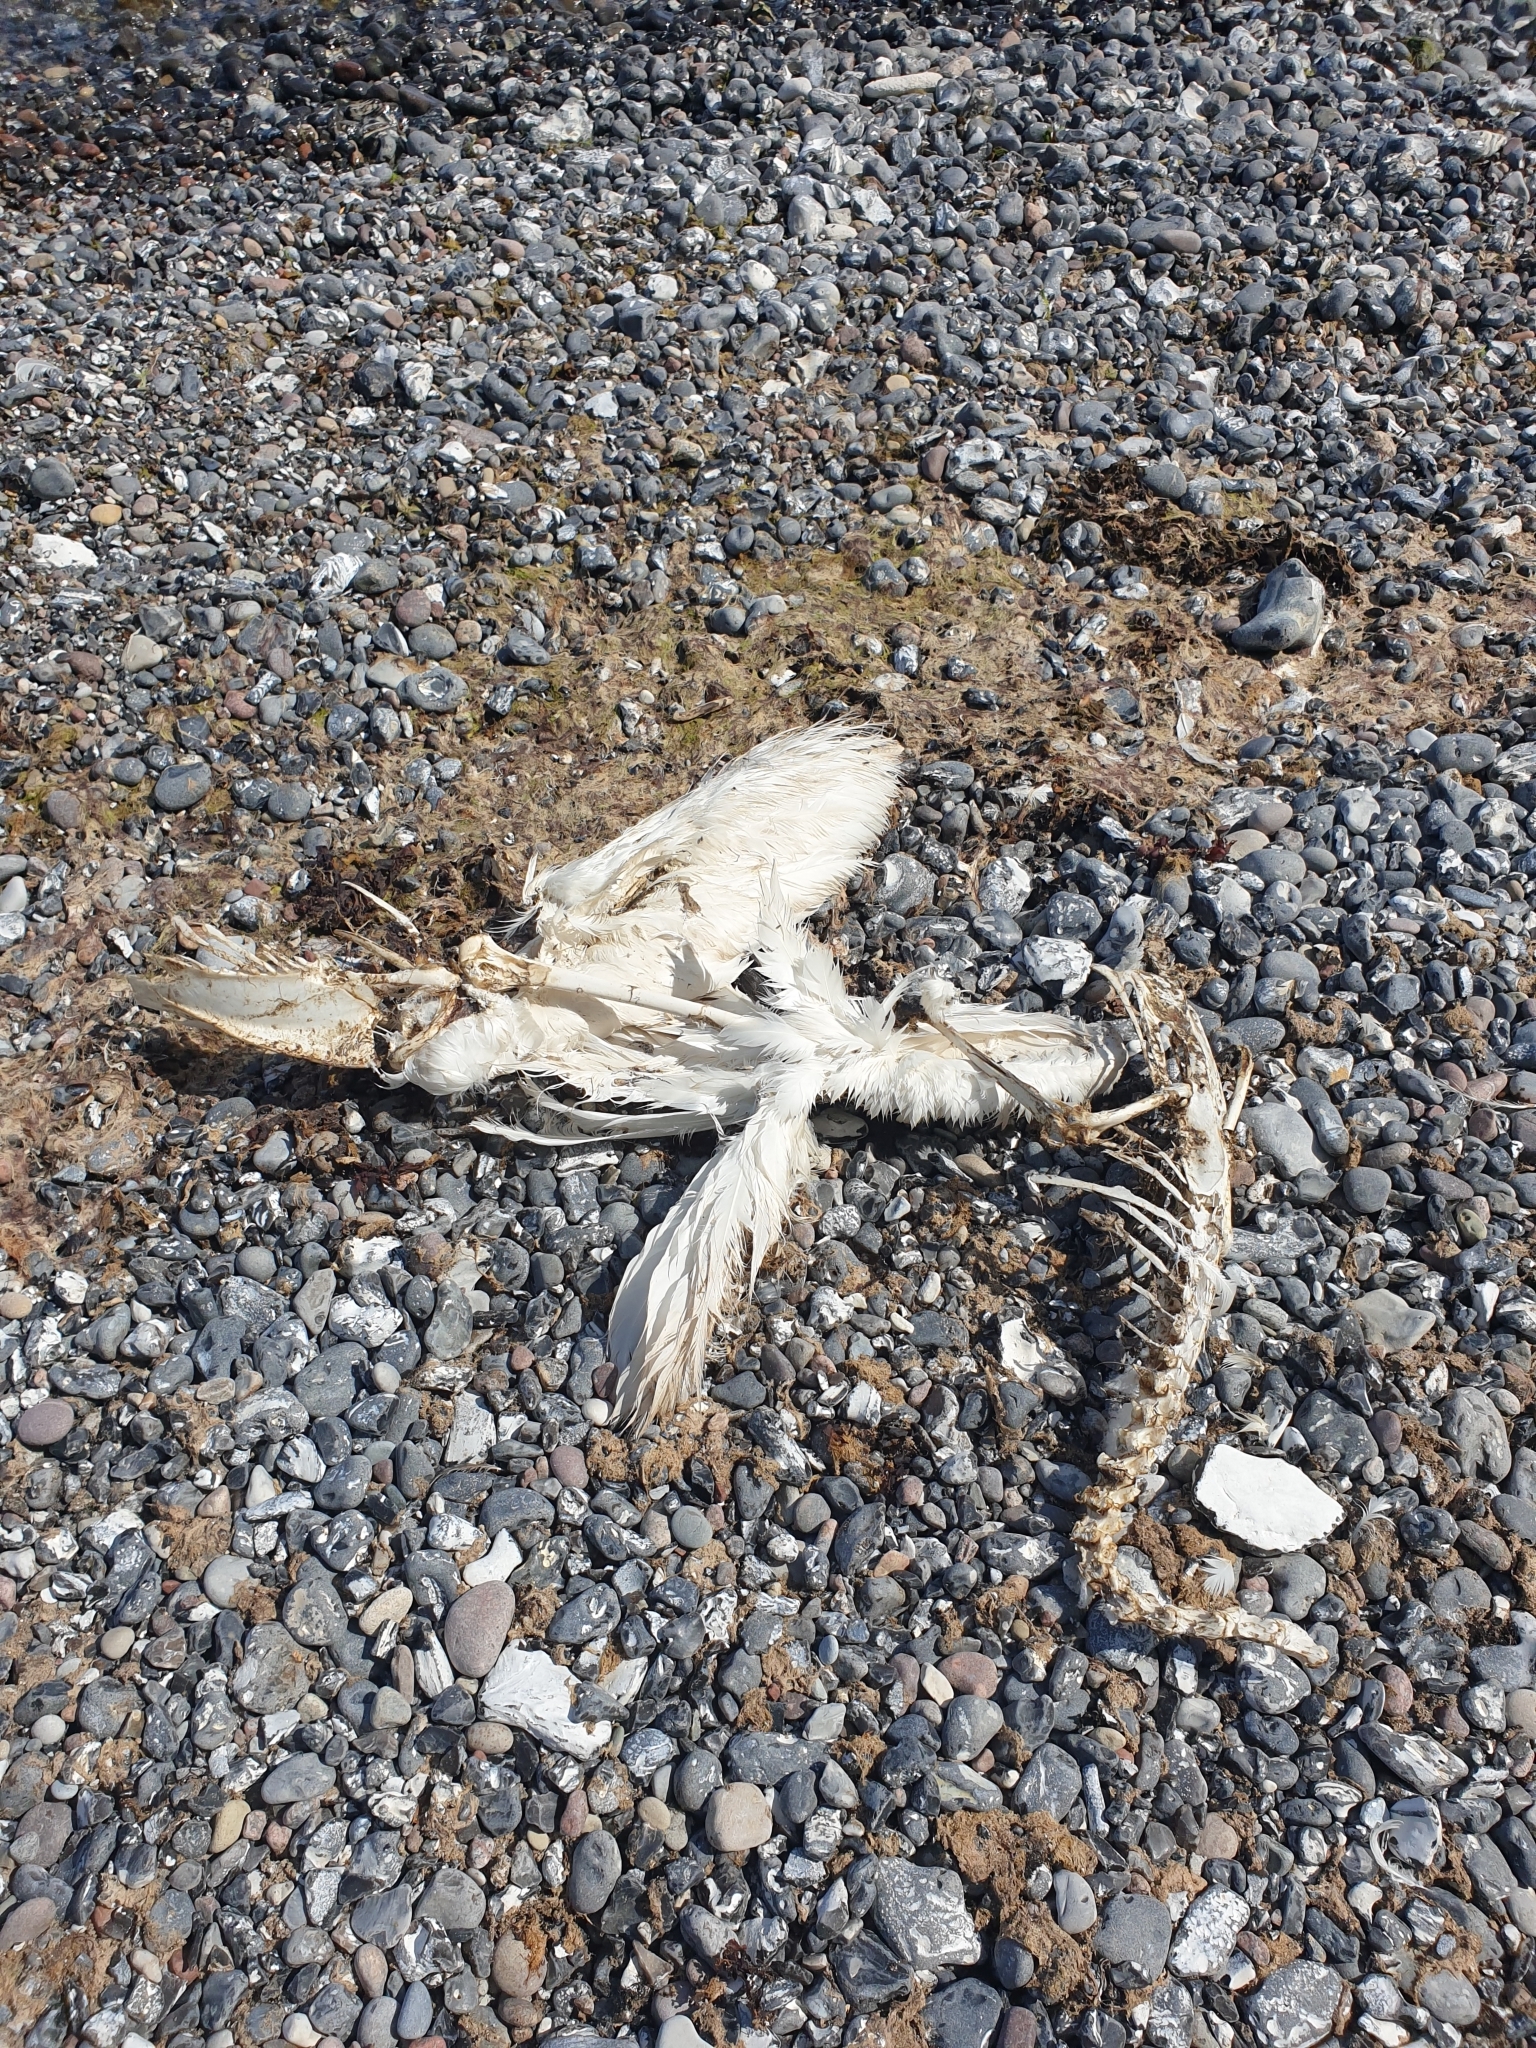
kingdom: Animalia
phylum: Chordata
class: Aves
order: Anseriformes
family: Anatidae
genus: Cygnus
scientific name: Cygnus olor
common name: Mute swan
